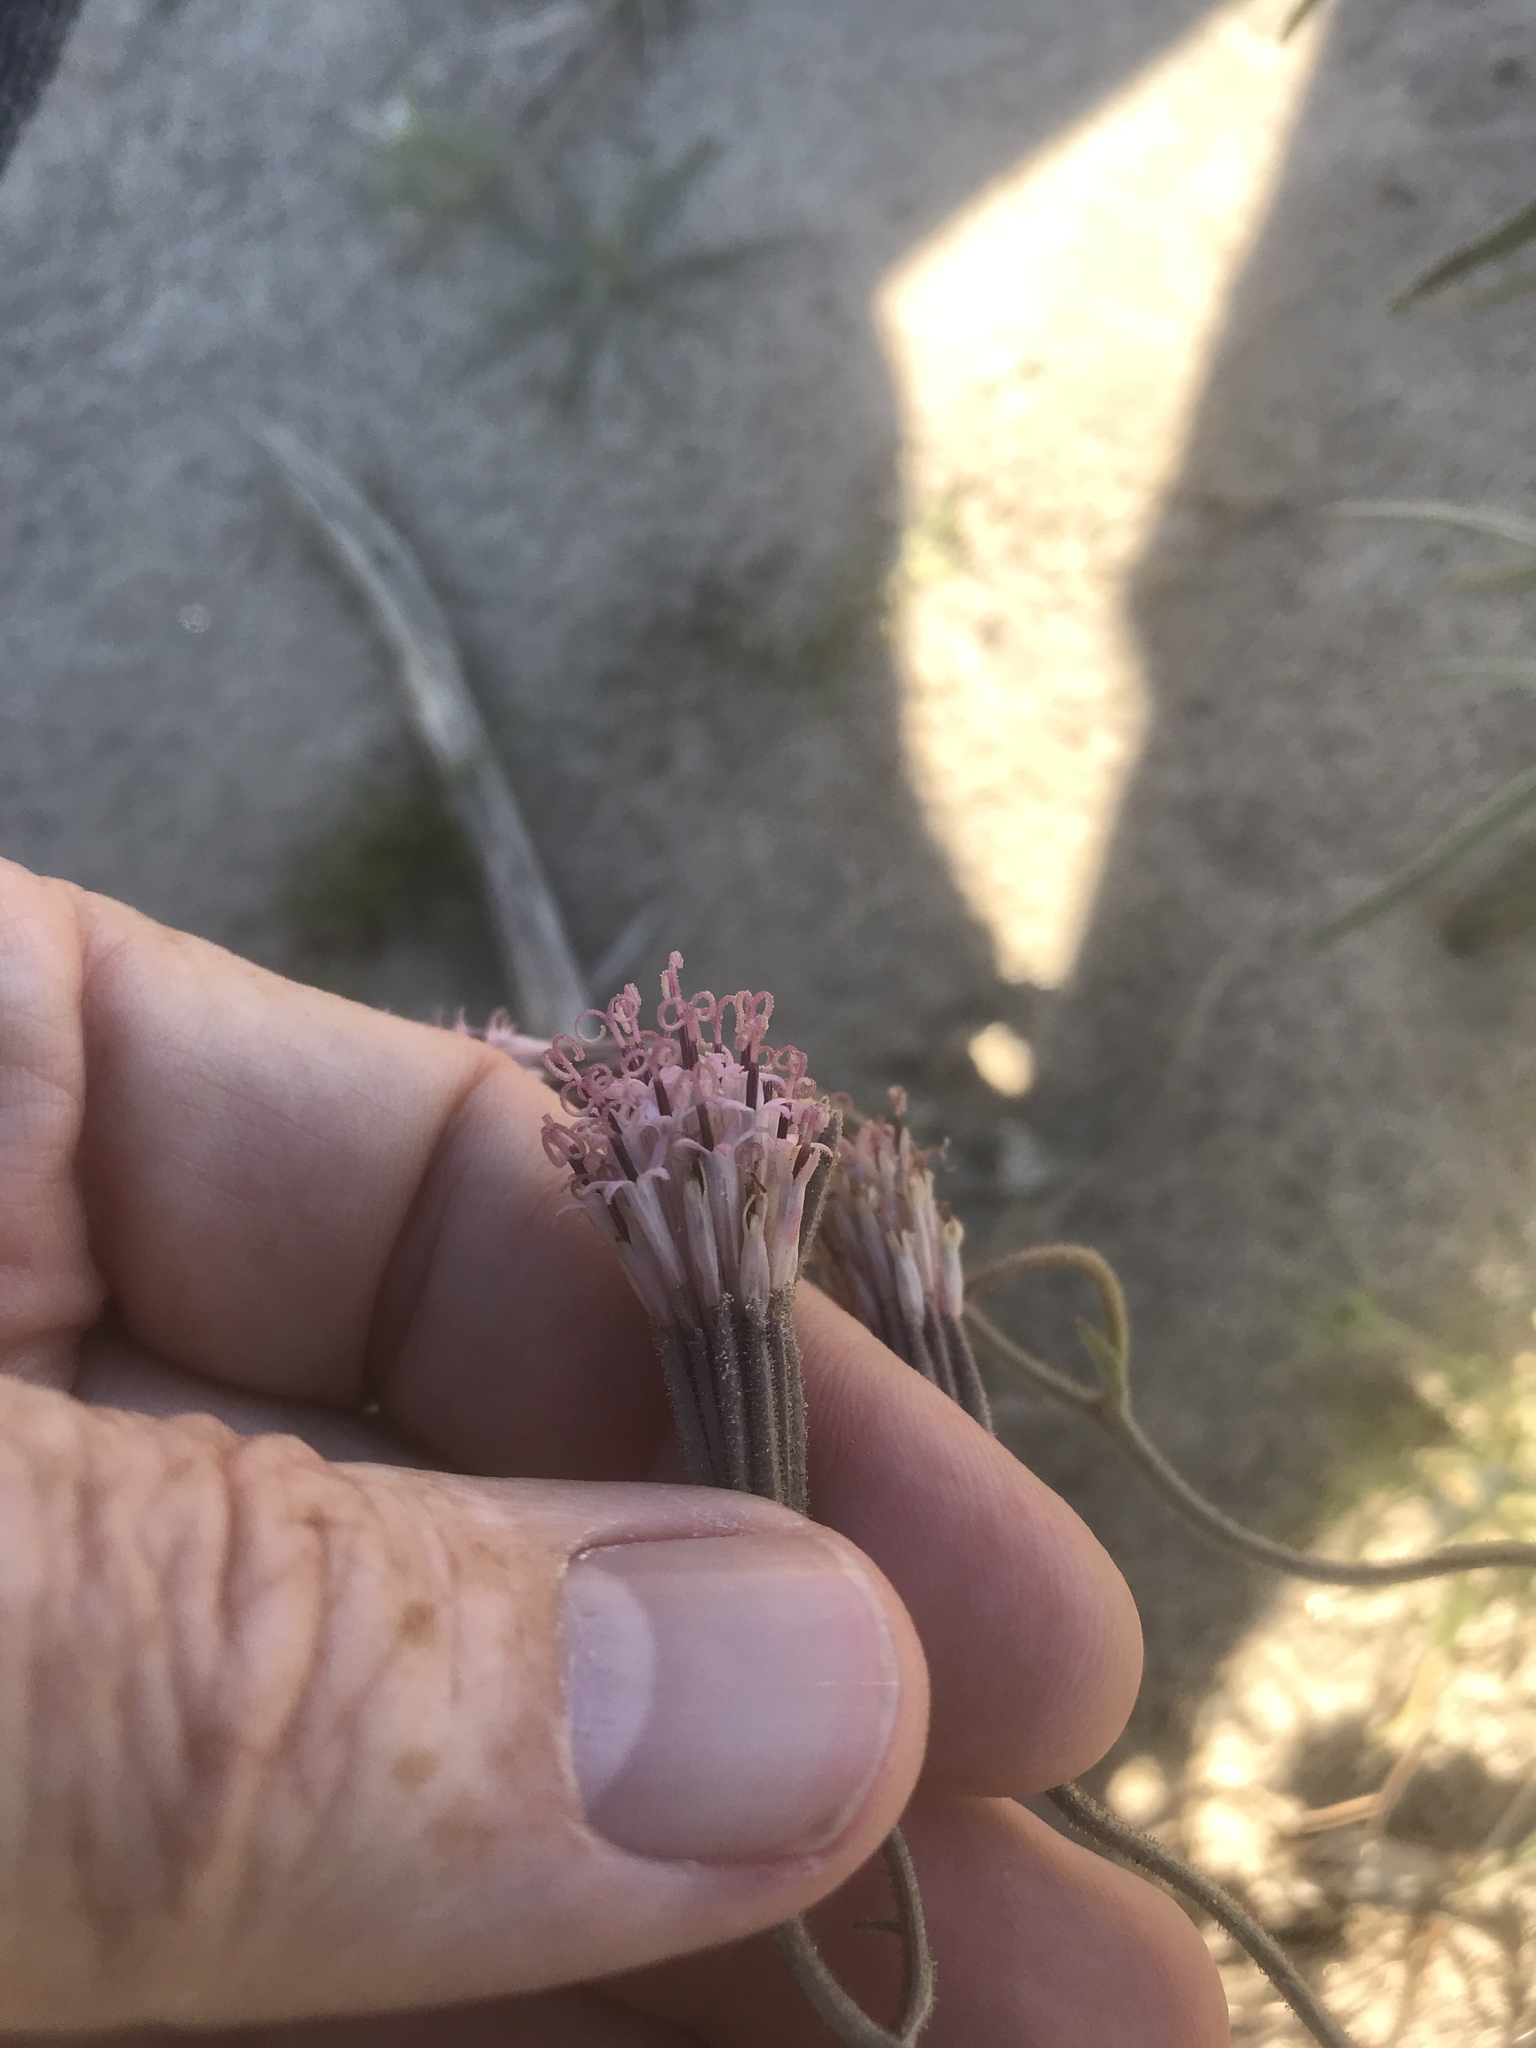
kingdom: Plantae
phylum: Tracheophyta
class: Magnoliopsida
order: Asterales
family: Asteraceae
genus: Palafoxia
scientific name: Palafoxia arida
